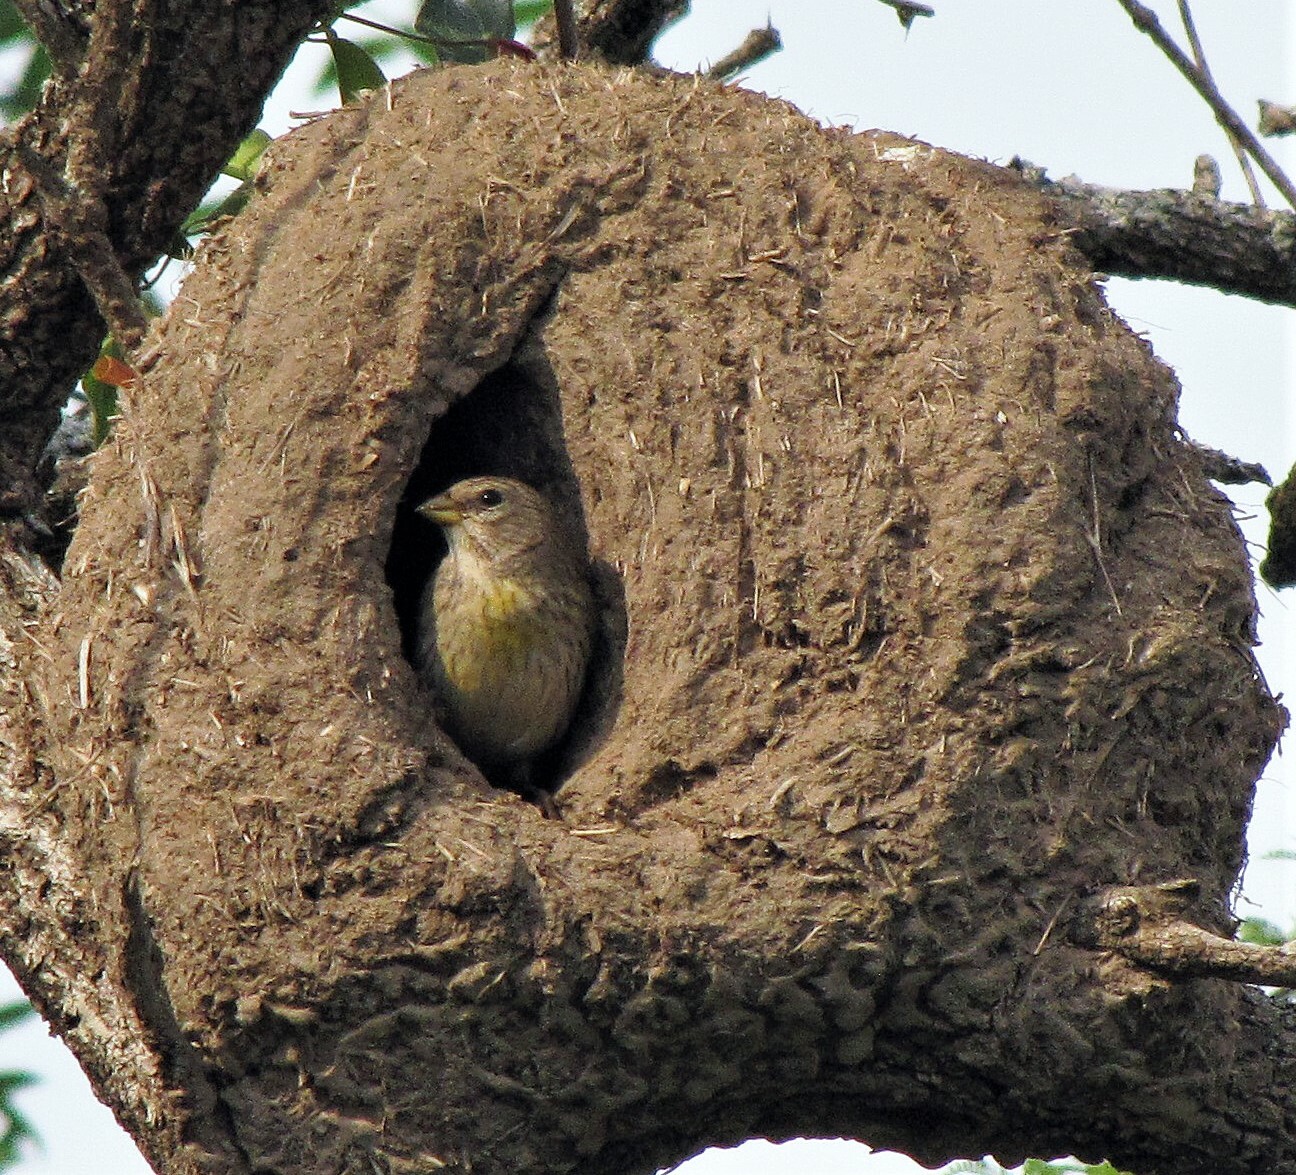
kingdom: Animalia
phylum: Chordata
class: Aves
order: Passeriformes
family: Thraupidae
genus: Sicalis
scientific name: Sicalis flaveola
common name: Saffron finch
